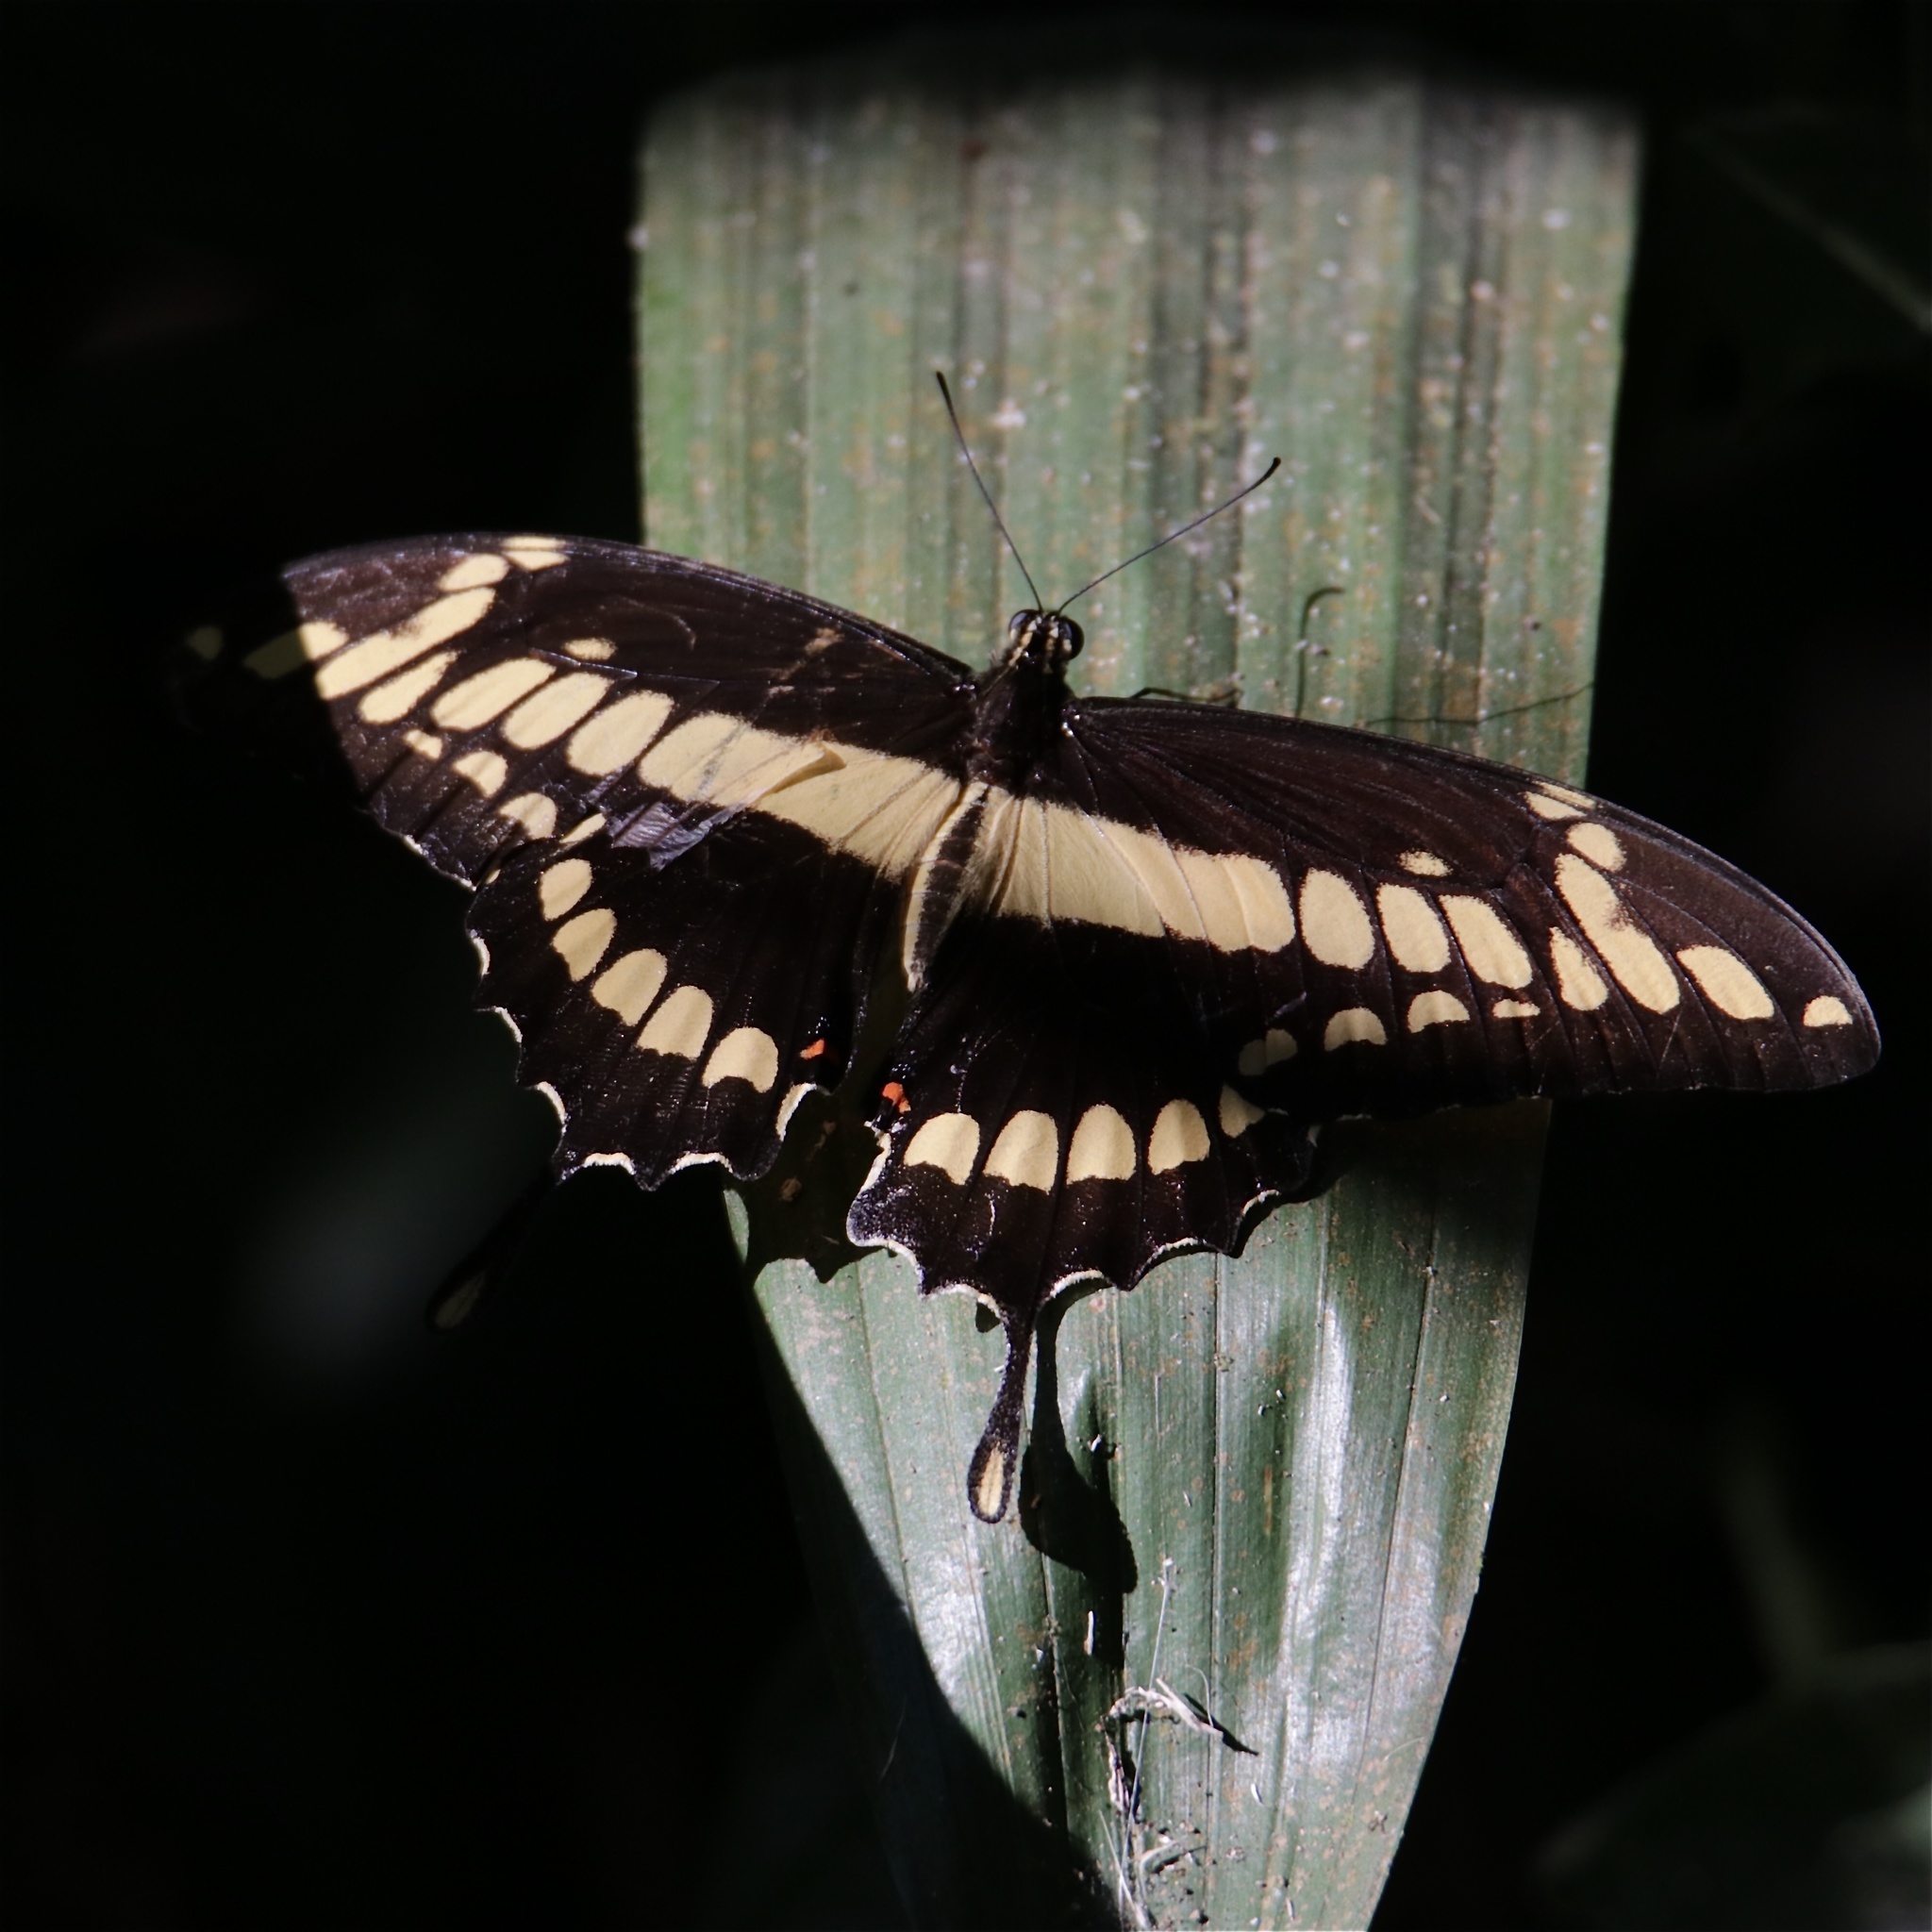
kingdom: Animalia
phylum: Arthropoda
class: Insecta
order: Lepidoptera
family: Papilionidae
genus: Papilio
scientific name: Papilio thoas
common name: King swallowtail
